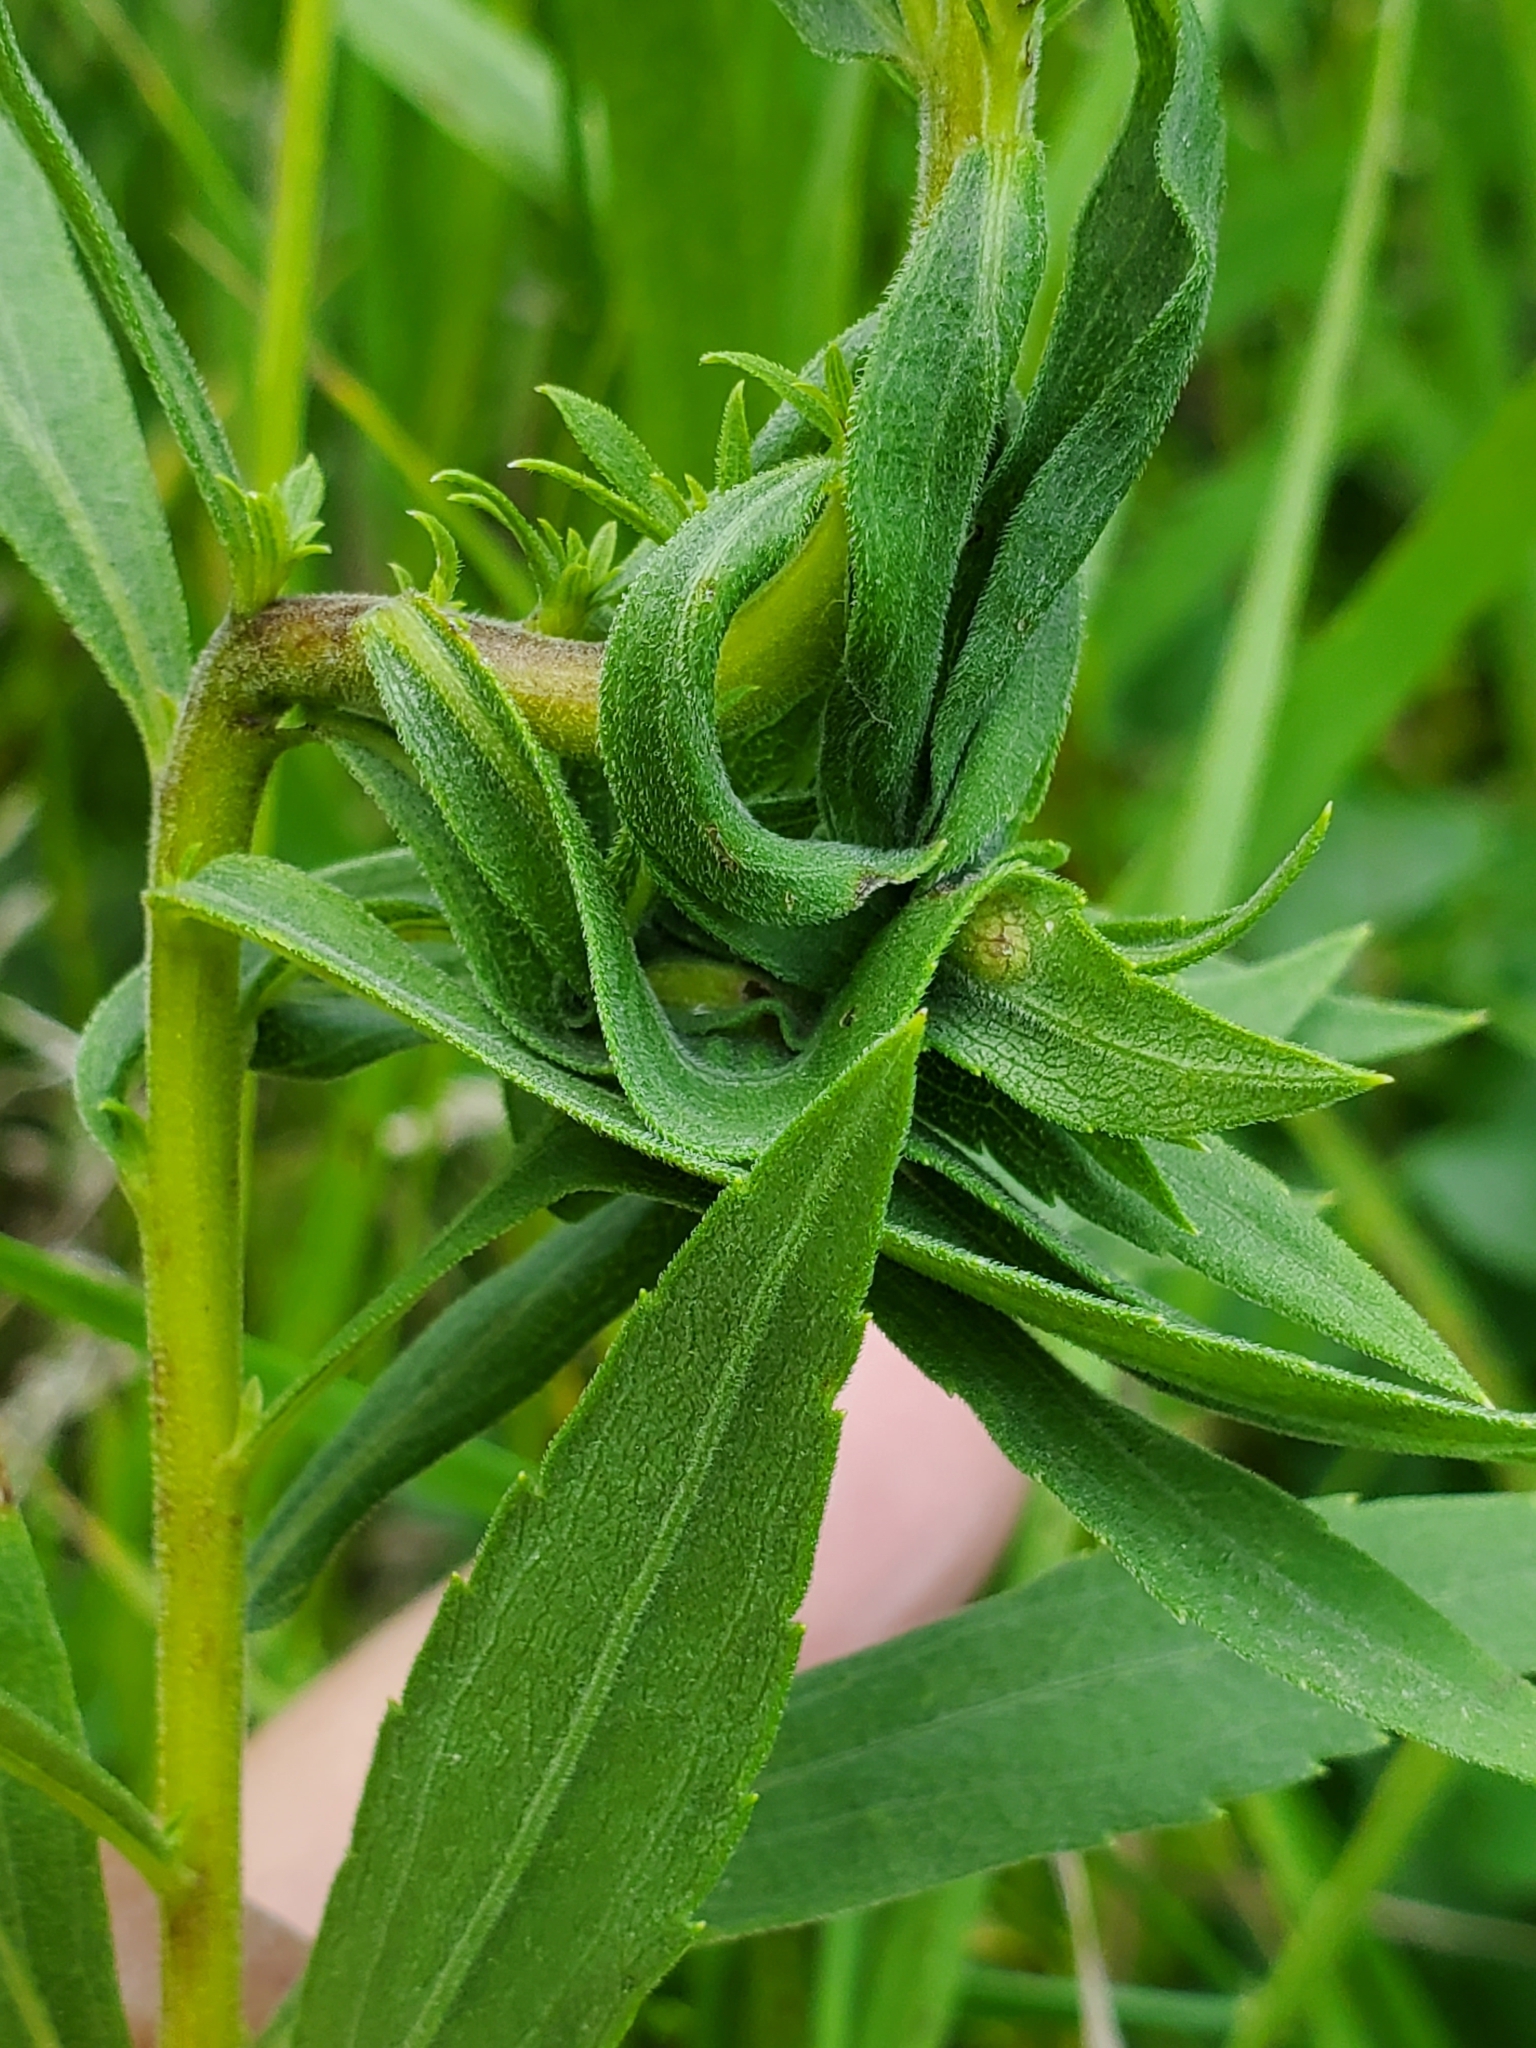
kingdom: Animalia
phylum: Arthropoda
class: Insecta
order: Diptera
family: Cecidomyiidae
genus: Asphondylia
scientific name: Asphondylia solidaginis
